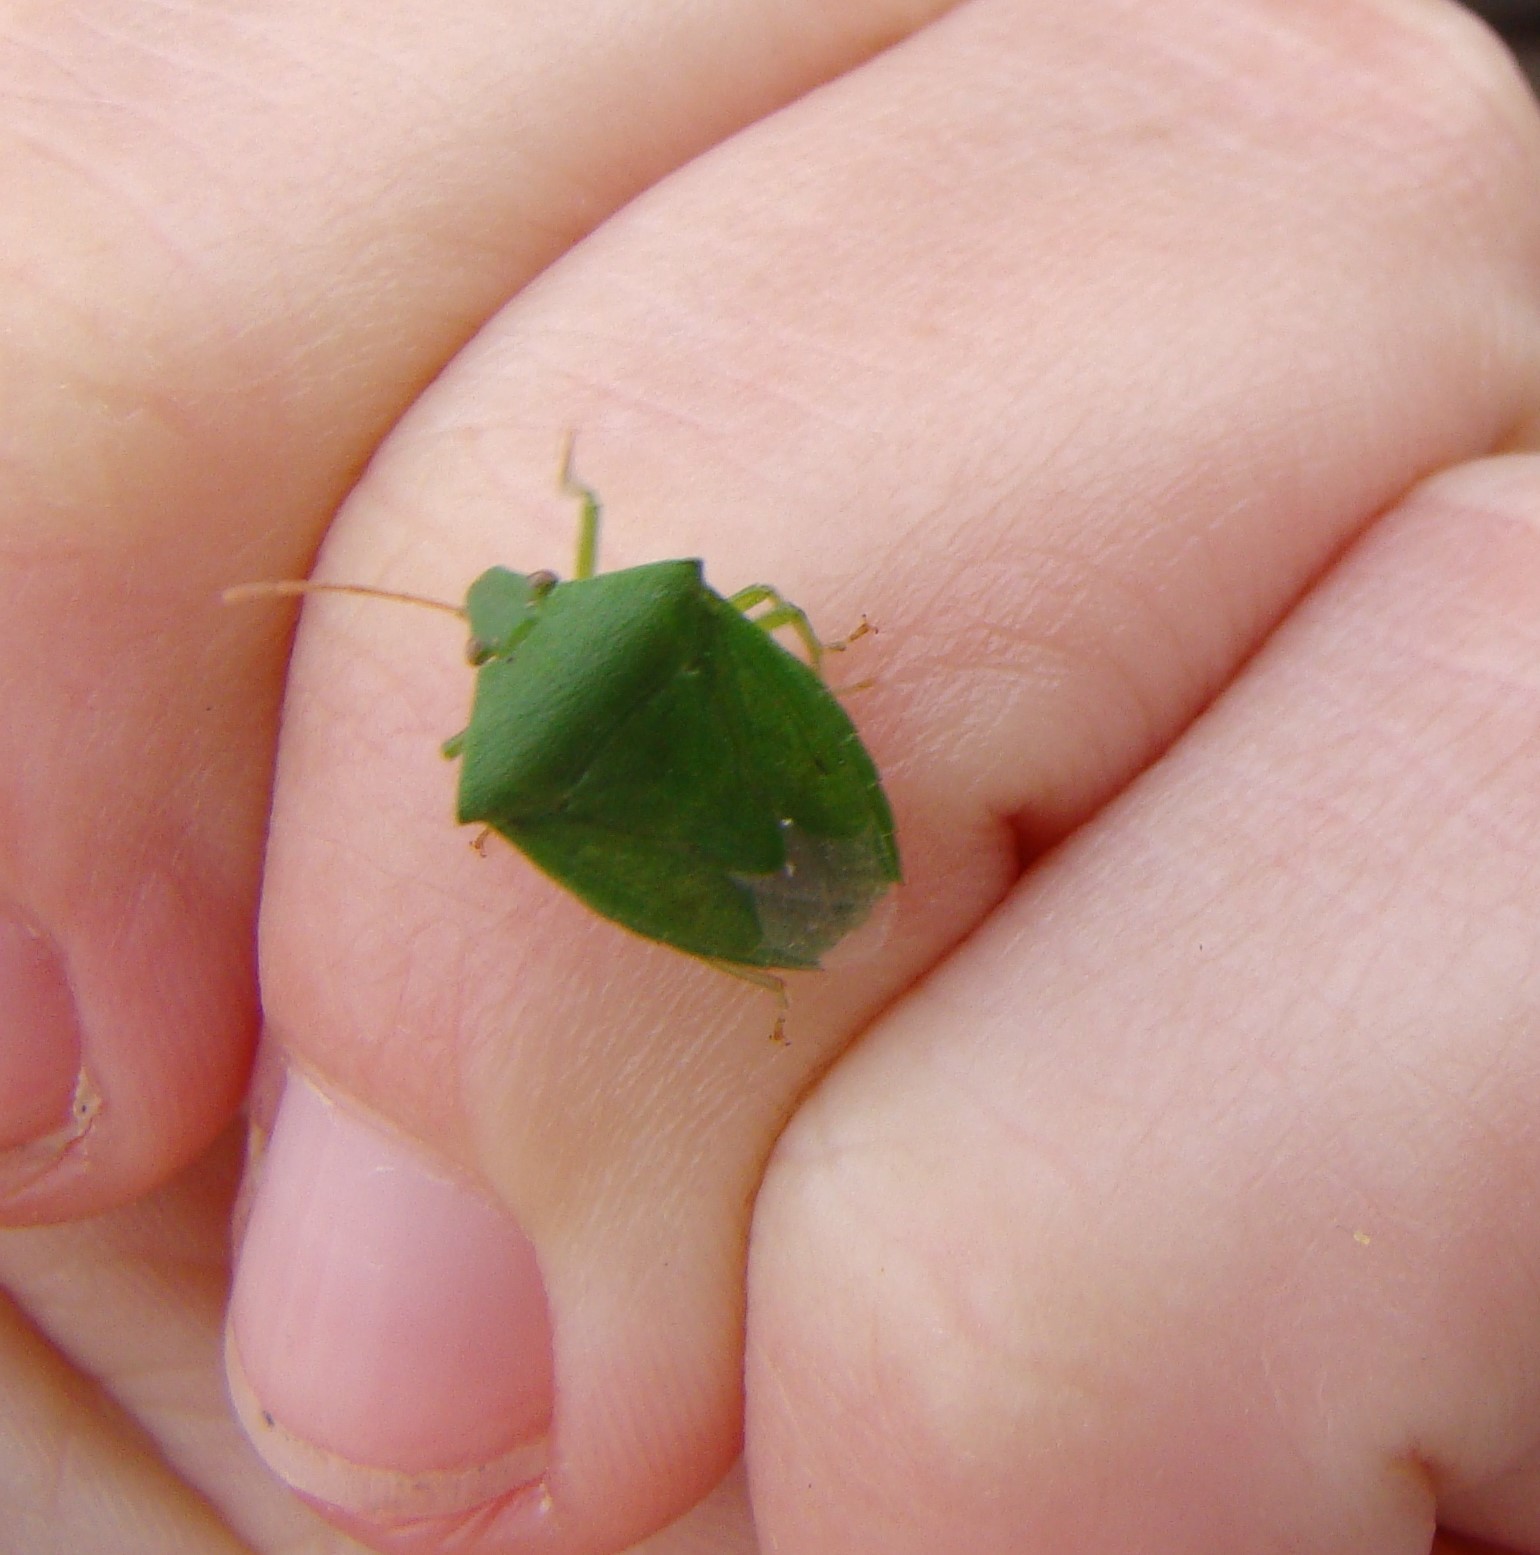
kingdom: Animalia
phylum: Arthropoda
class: Insecta
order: Hemiptera
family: Pentatomidae
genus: Cuspicona
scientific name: Cuspicona simplex
